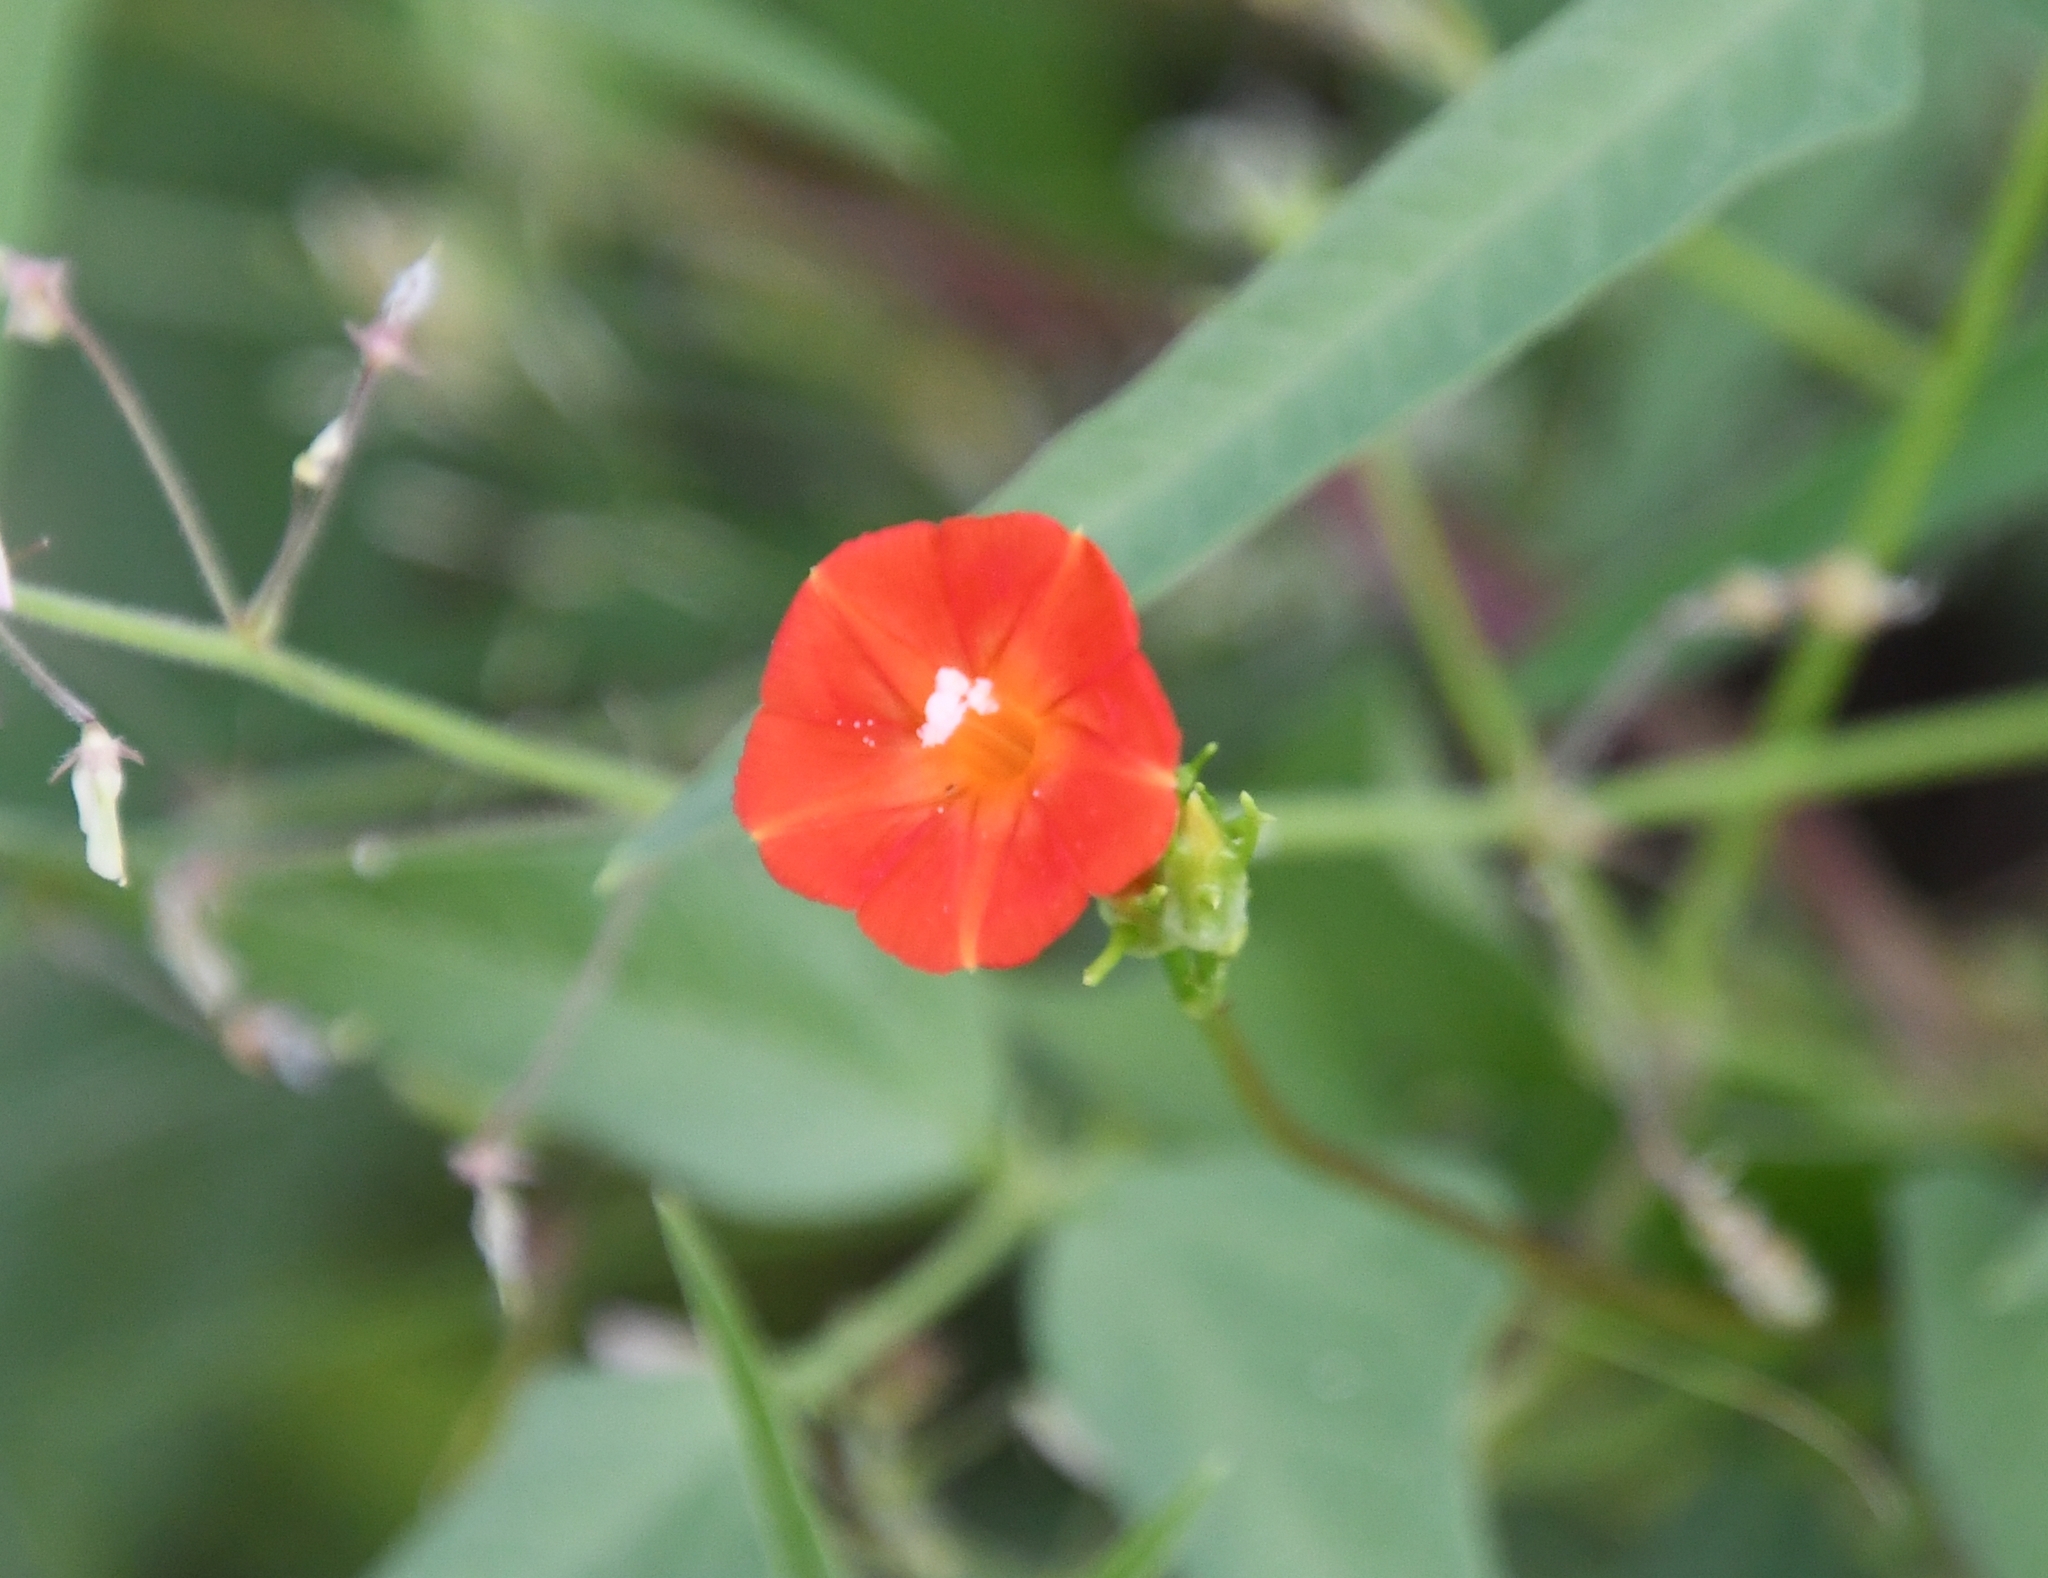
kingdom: Plantae
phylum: Tracheophyta
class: Magnoliopsida
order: Solanales
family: Convolvulaceae
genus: Ipomoea
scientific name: Ipomoea cristulata
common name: Trans-pecos morning-glory
